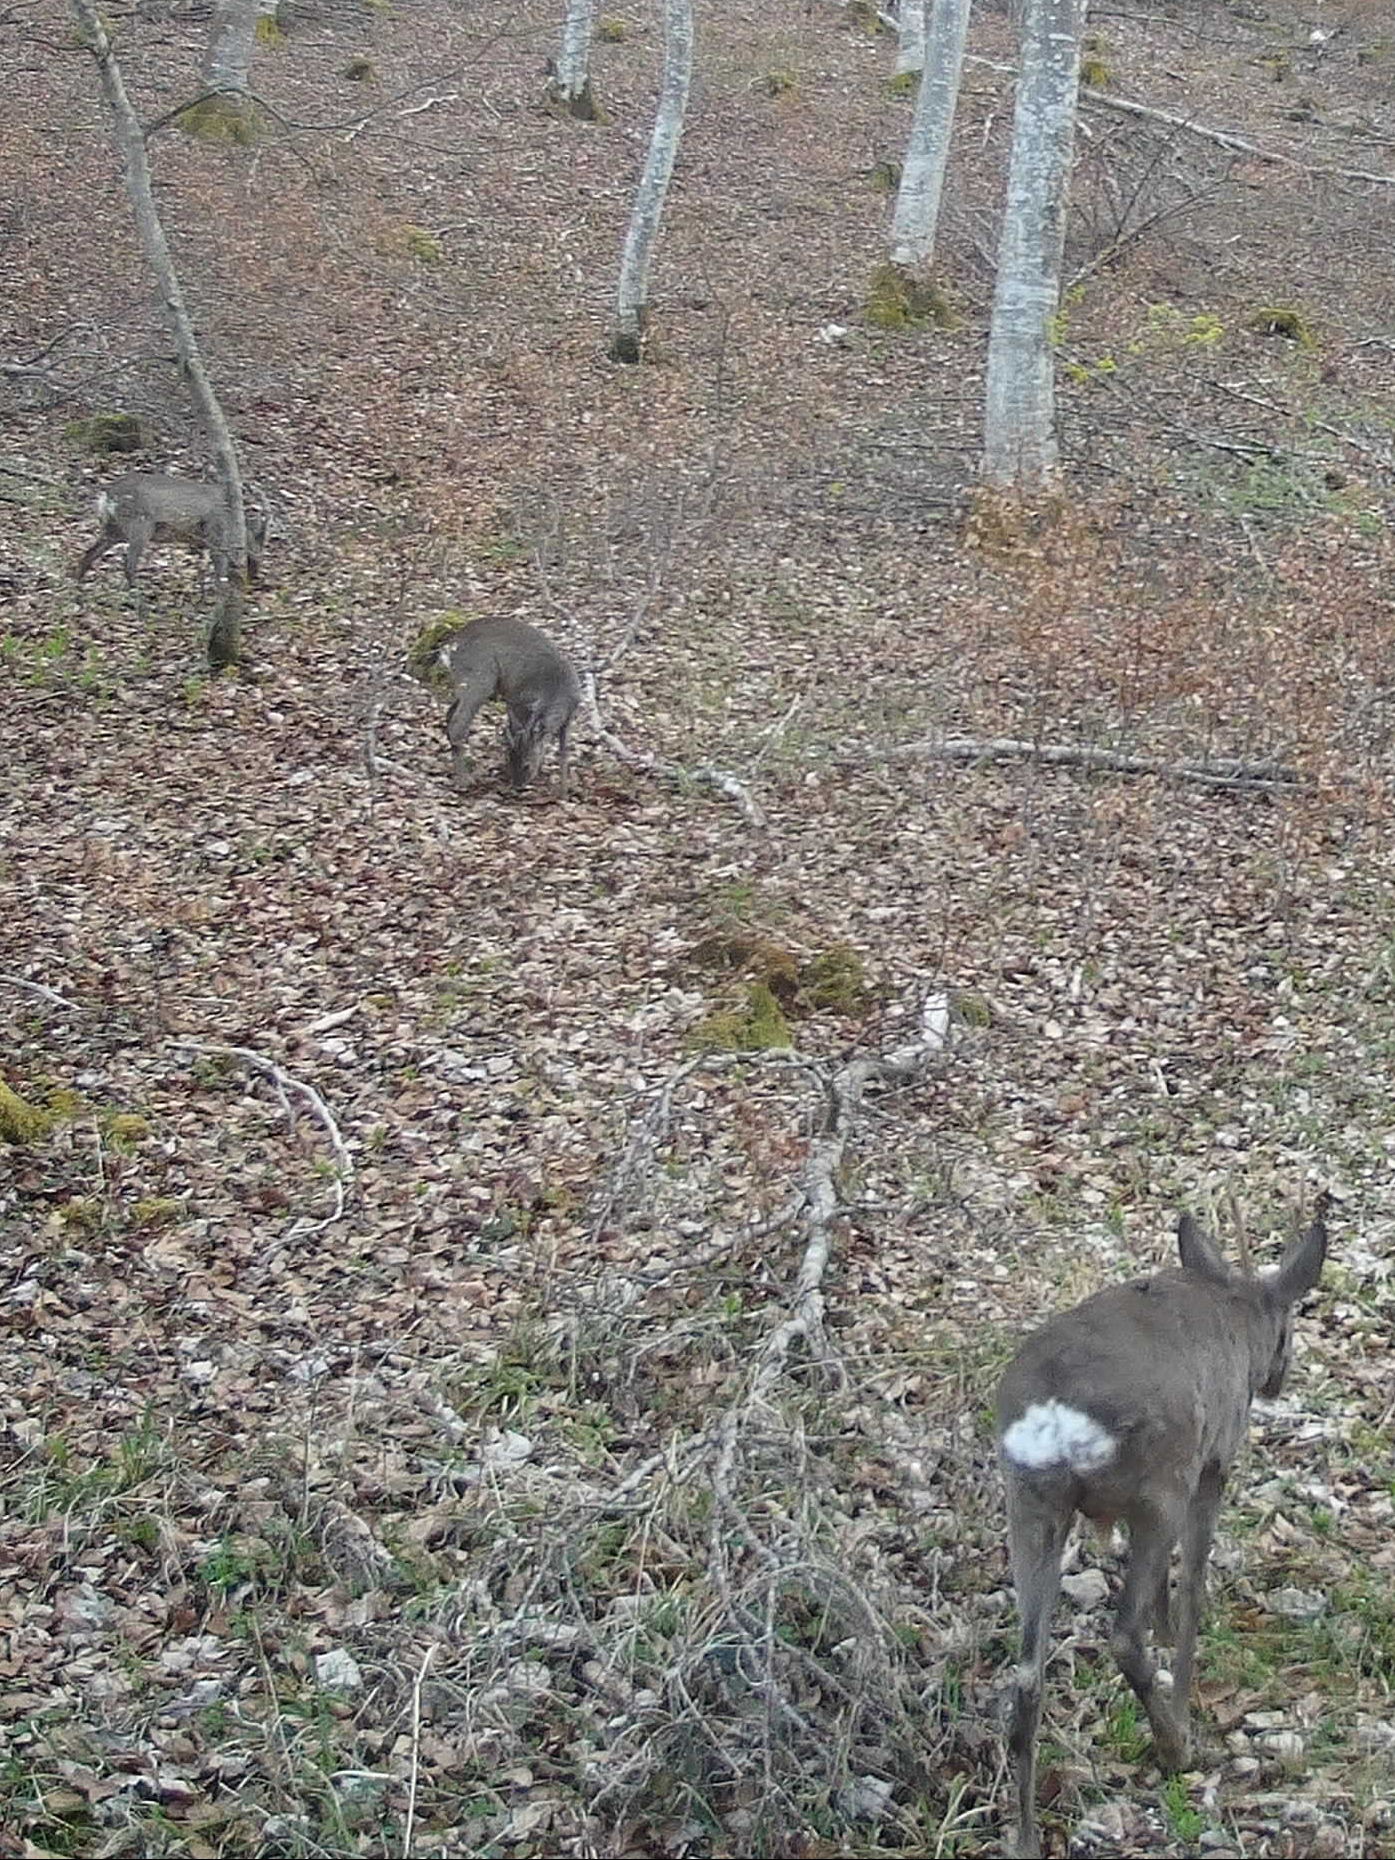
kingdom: Animalia
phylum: Chordata
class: Mammalia
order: Artiodactyla
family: Cervidae
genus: Capreolus
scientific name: Capreolus capreolus
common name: Western roe deer
